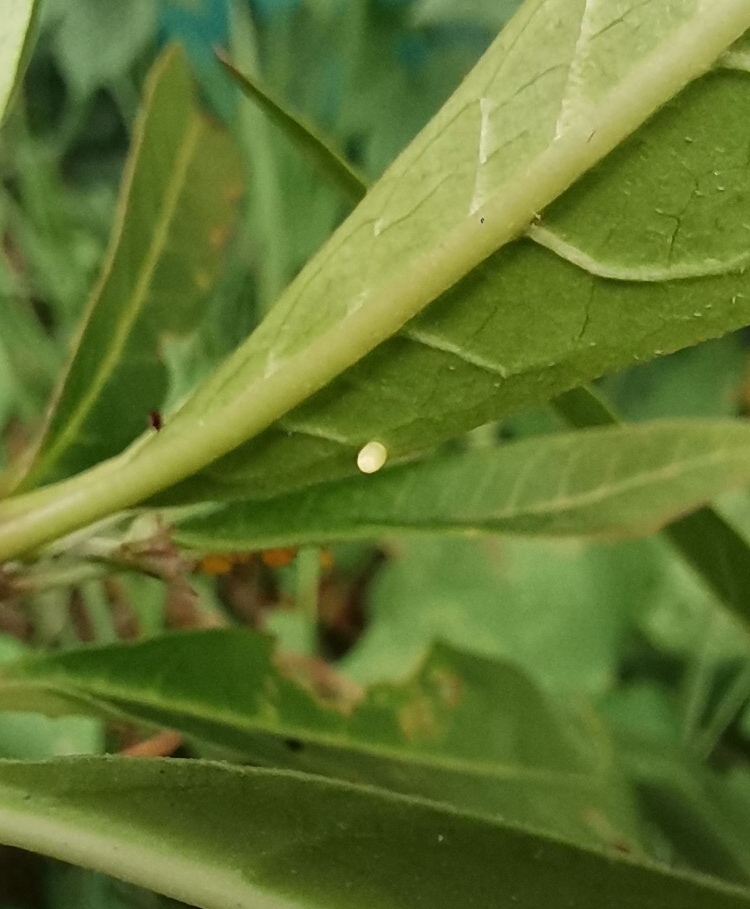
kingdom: Animalia
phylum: Arthropoda
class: Insecta
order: Lepidoptera
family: Nymphalidae
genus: Danaus
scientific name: Danaus plexippus
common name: Monarch
